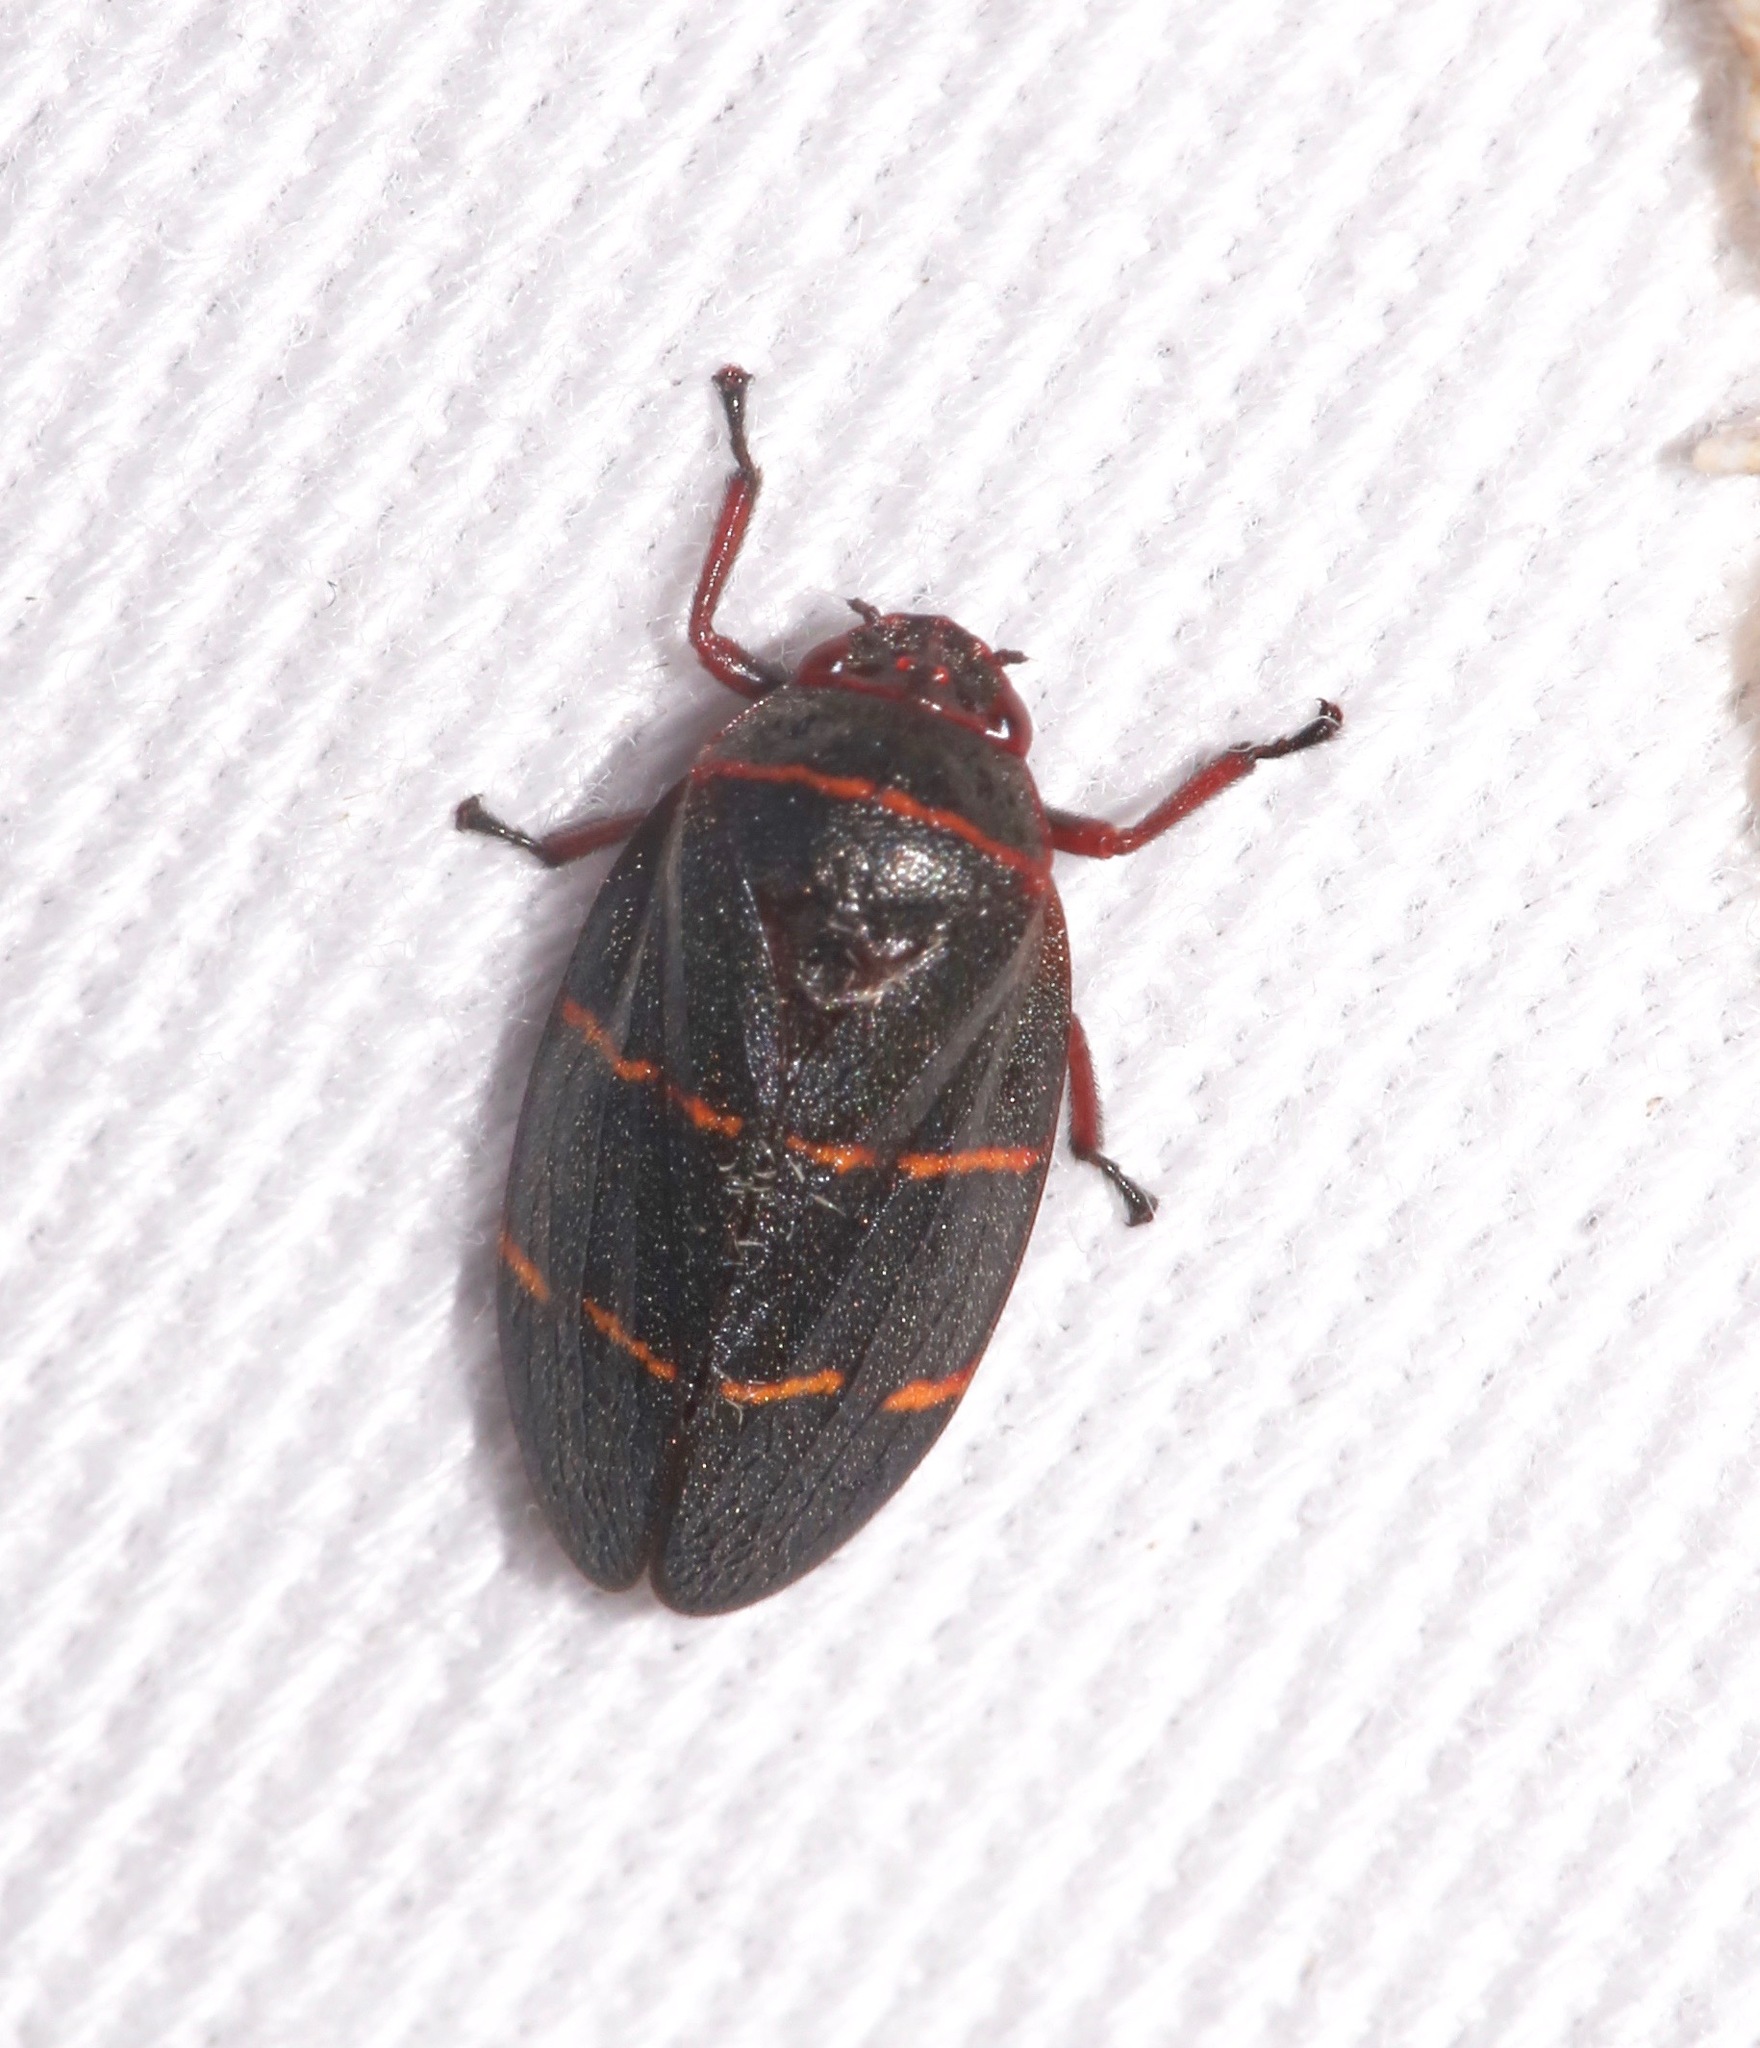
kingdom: Animalia
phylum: Arthropoda
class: Insecta
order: Hemiptera
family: Cercopidae
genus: Prosapia
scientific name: Prosapia bicincta
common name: Twolined spittlebug
